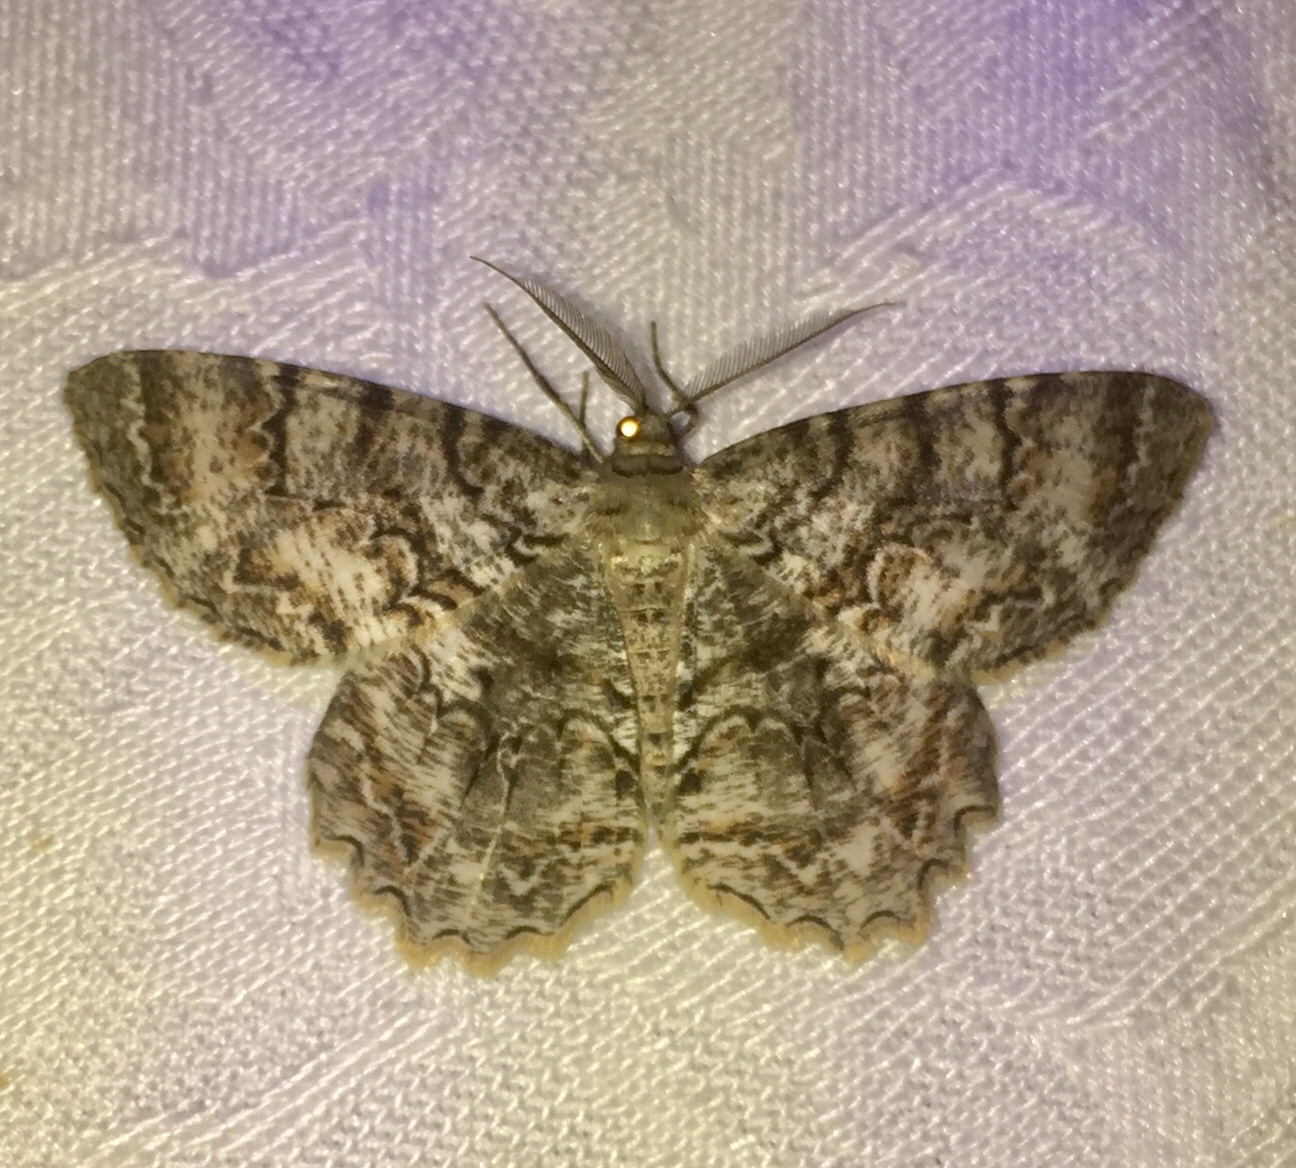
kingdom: Animalia
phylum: Arthropoda
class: Insecta
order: Lepidoptera
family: Geometridae
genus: Epimecis
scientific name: Epimecis hortaria
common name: Tulip-tree beauty
